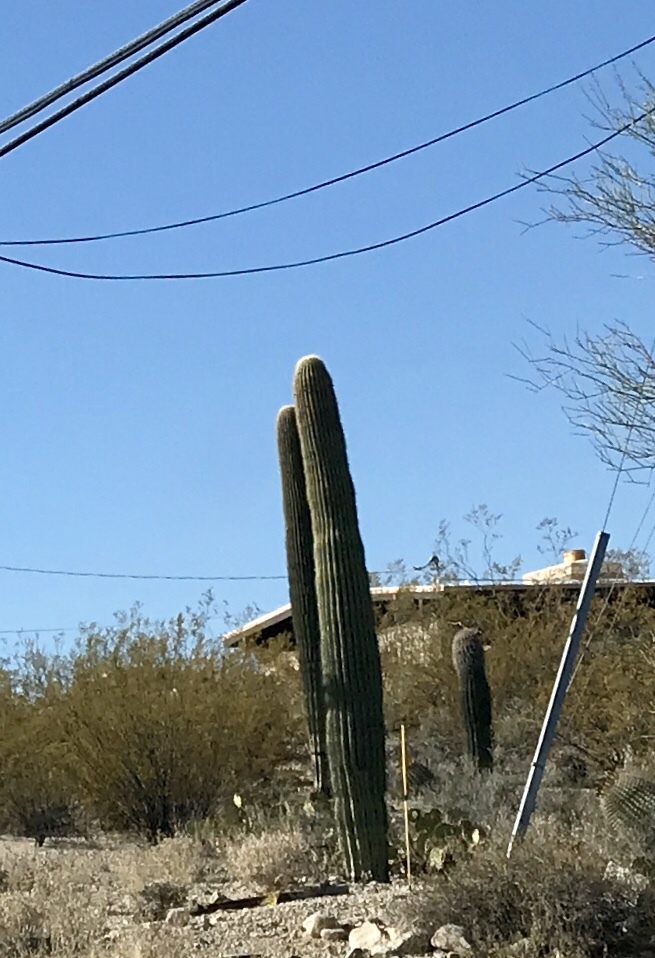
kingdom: Plantae
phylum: Tracheophyta
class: Magnoliopsida
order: Caryophyllales
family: Cactaceae
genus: Carnegiea
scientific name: Carnegiea gigantea
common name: Saguaro
